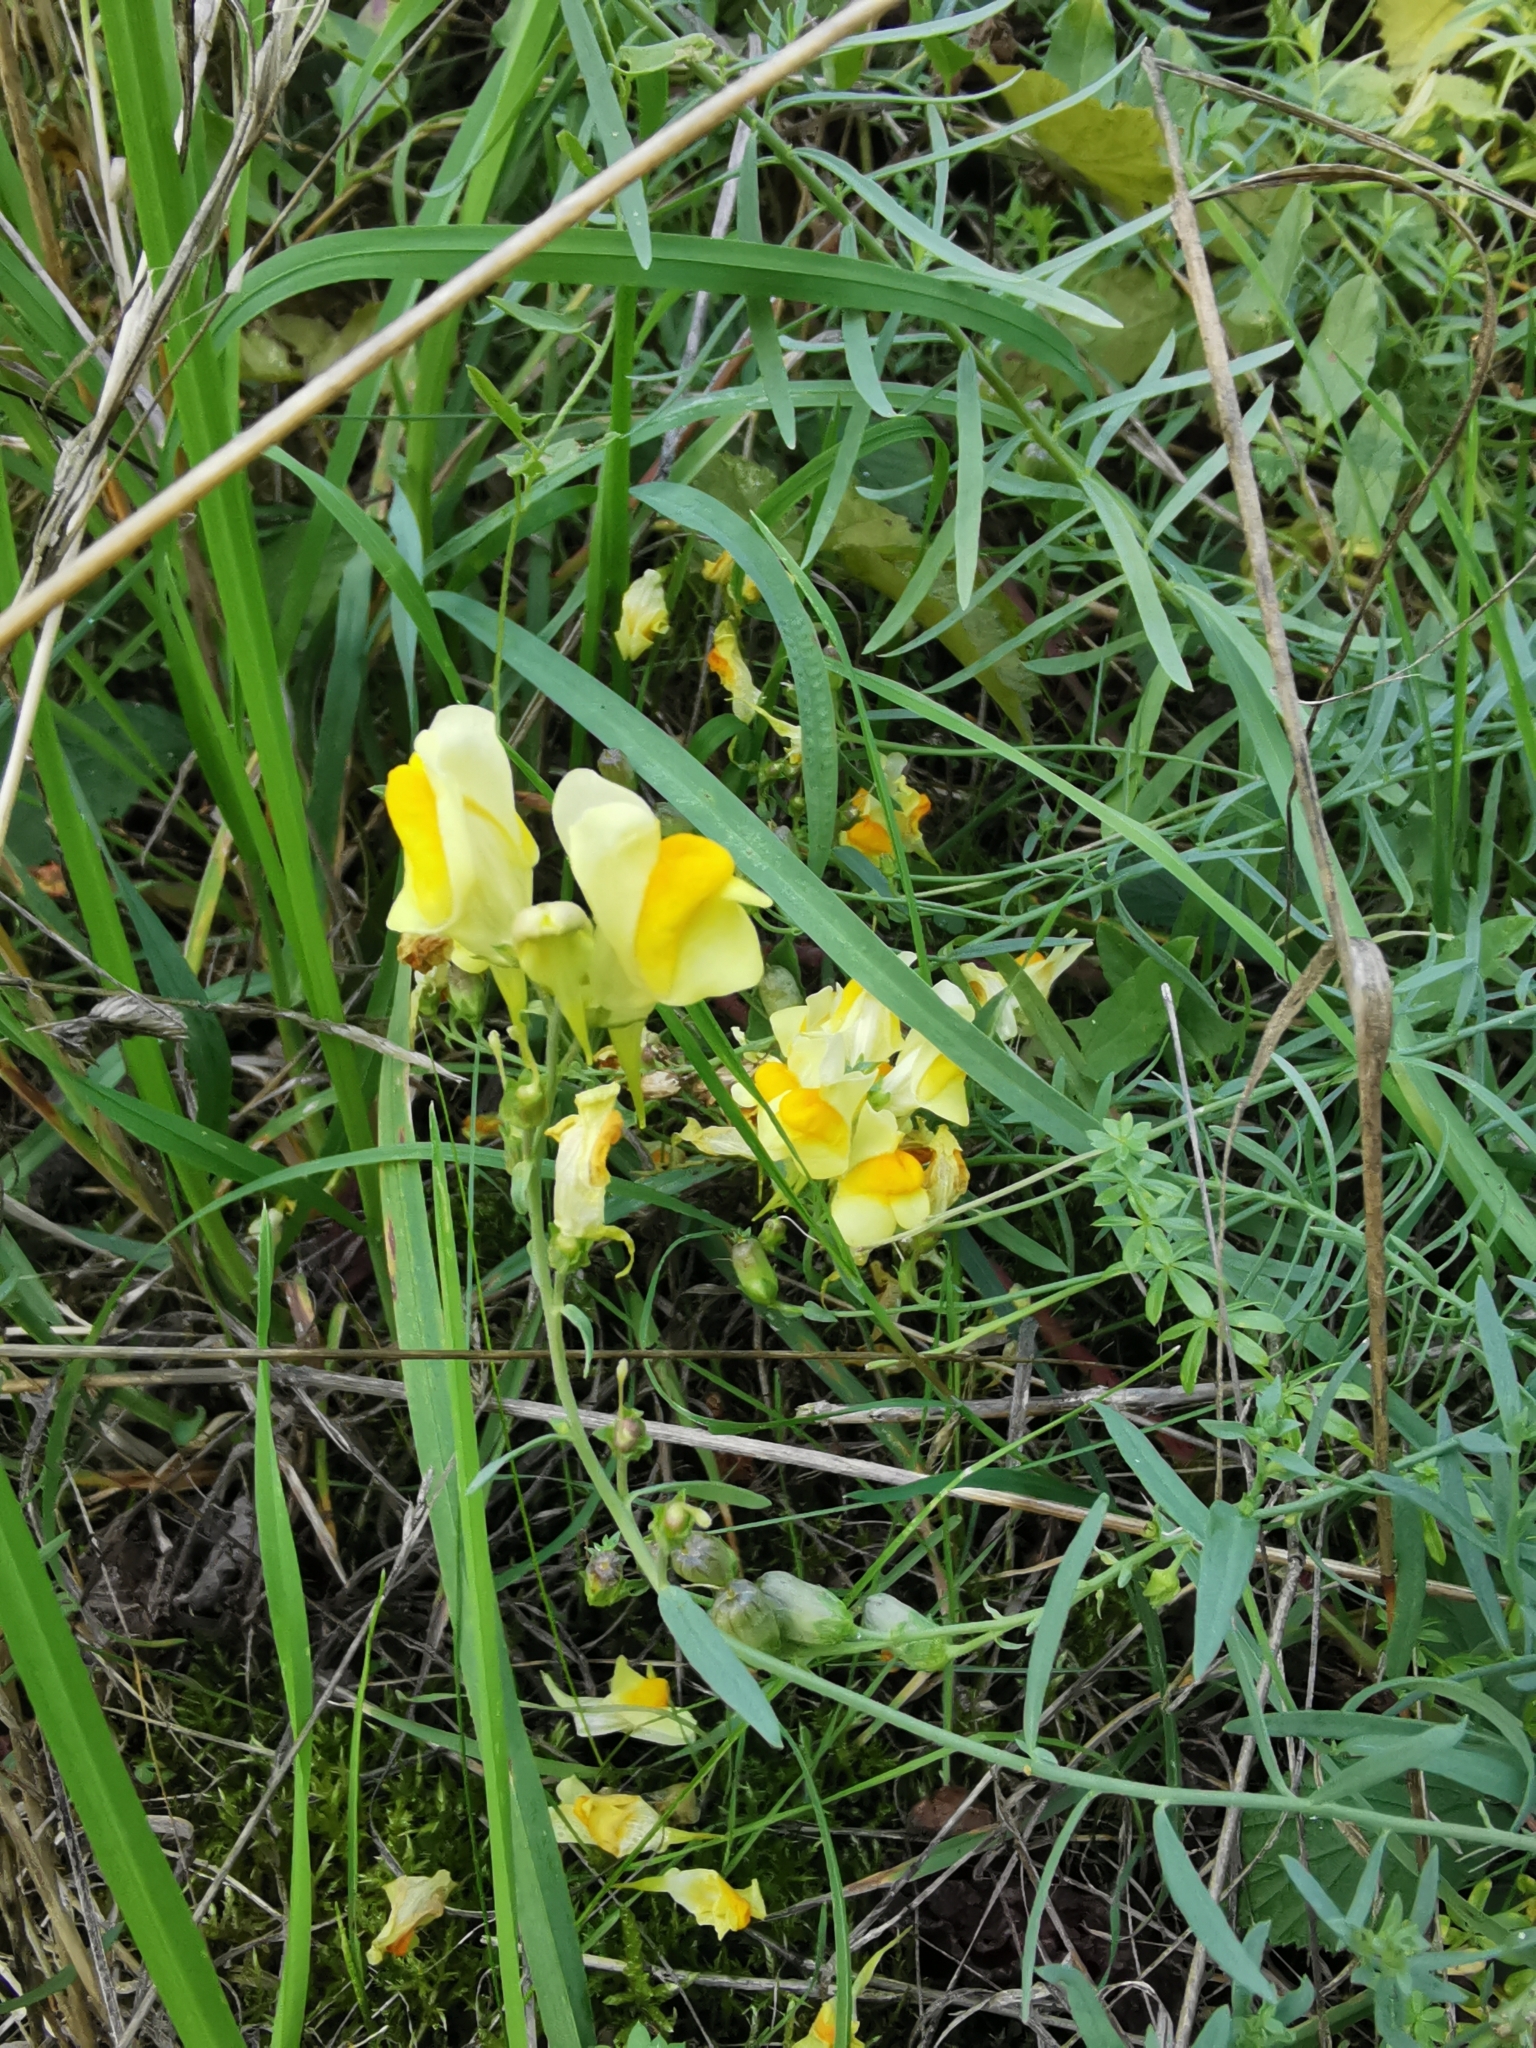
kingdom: Plantae
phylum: Tracheophyta
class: Magnoliopsida
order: Lamiales
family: Plantaginaceae
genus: Linaria
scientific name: Linaria vulgaris
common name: Butter and eggs
